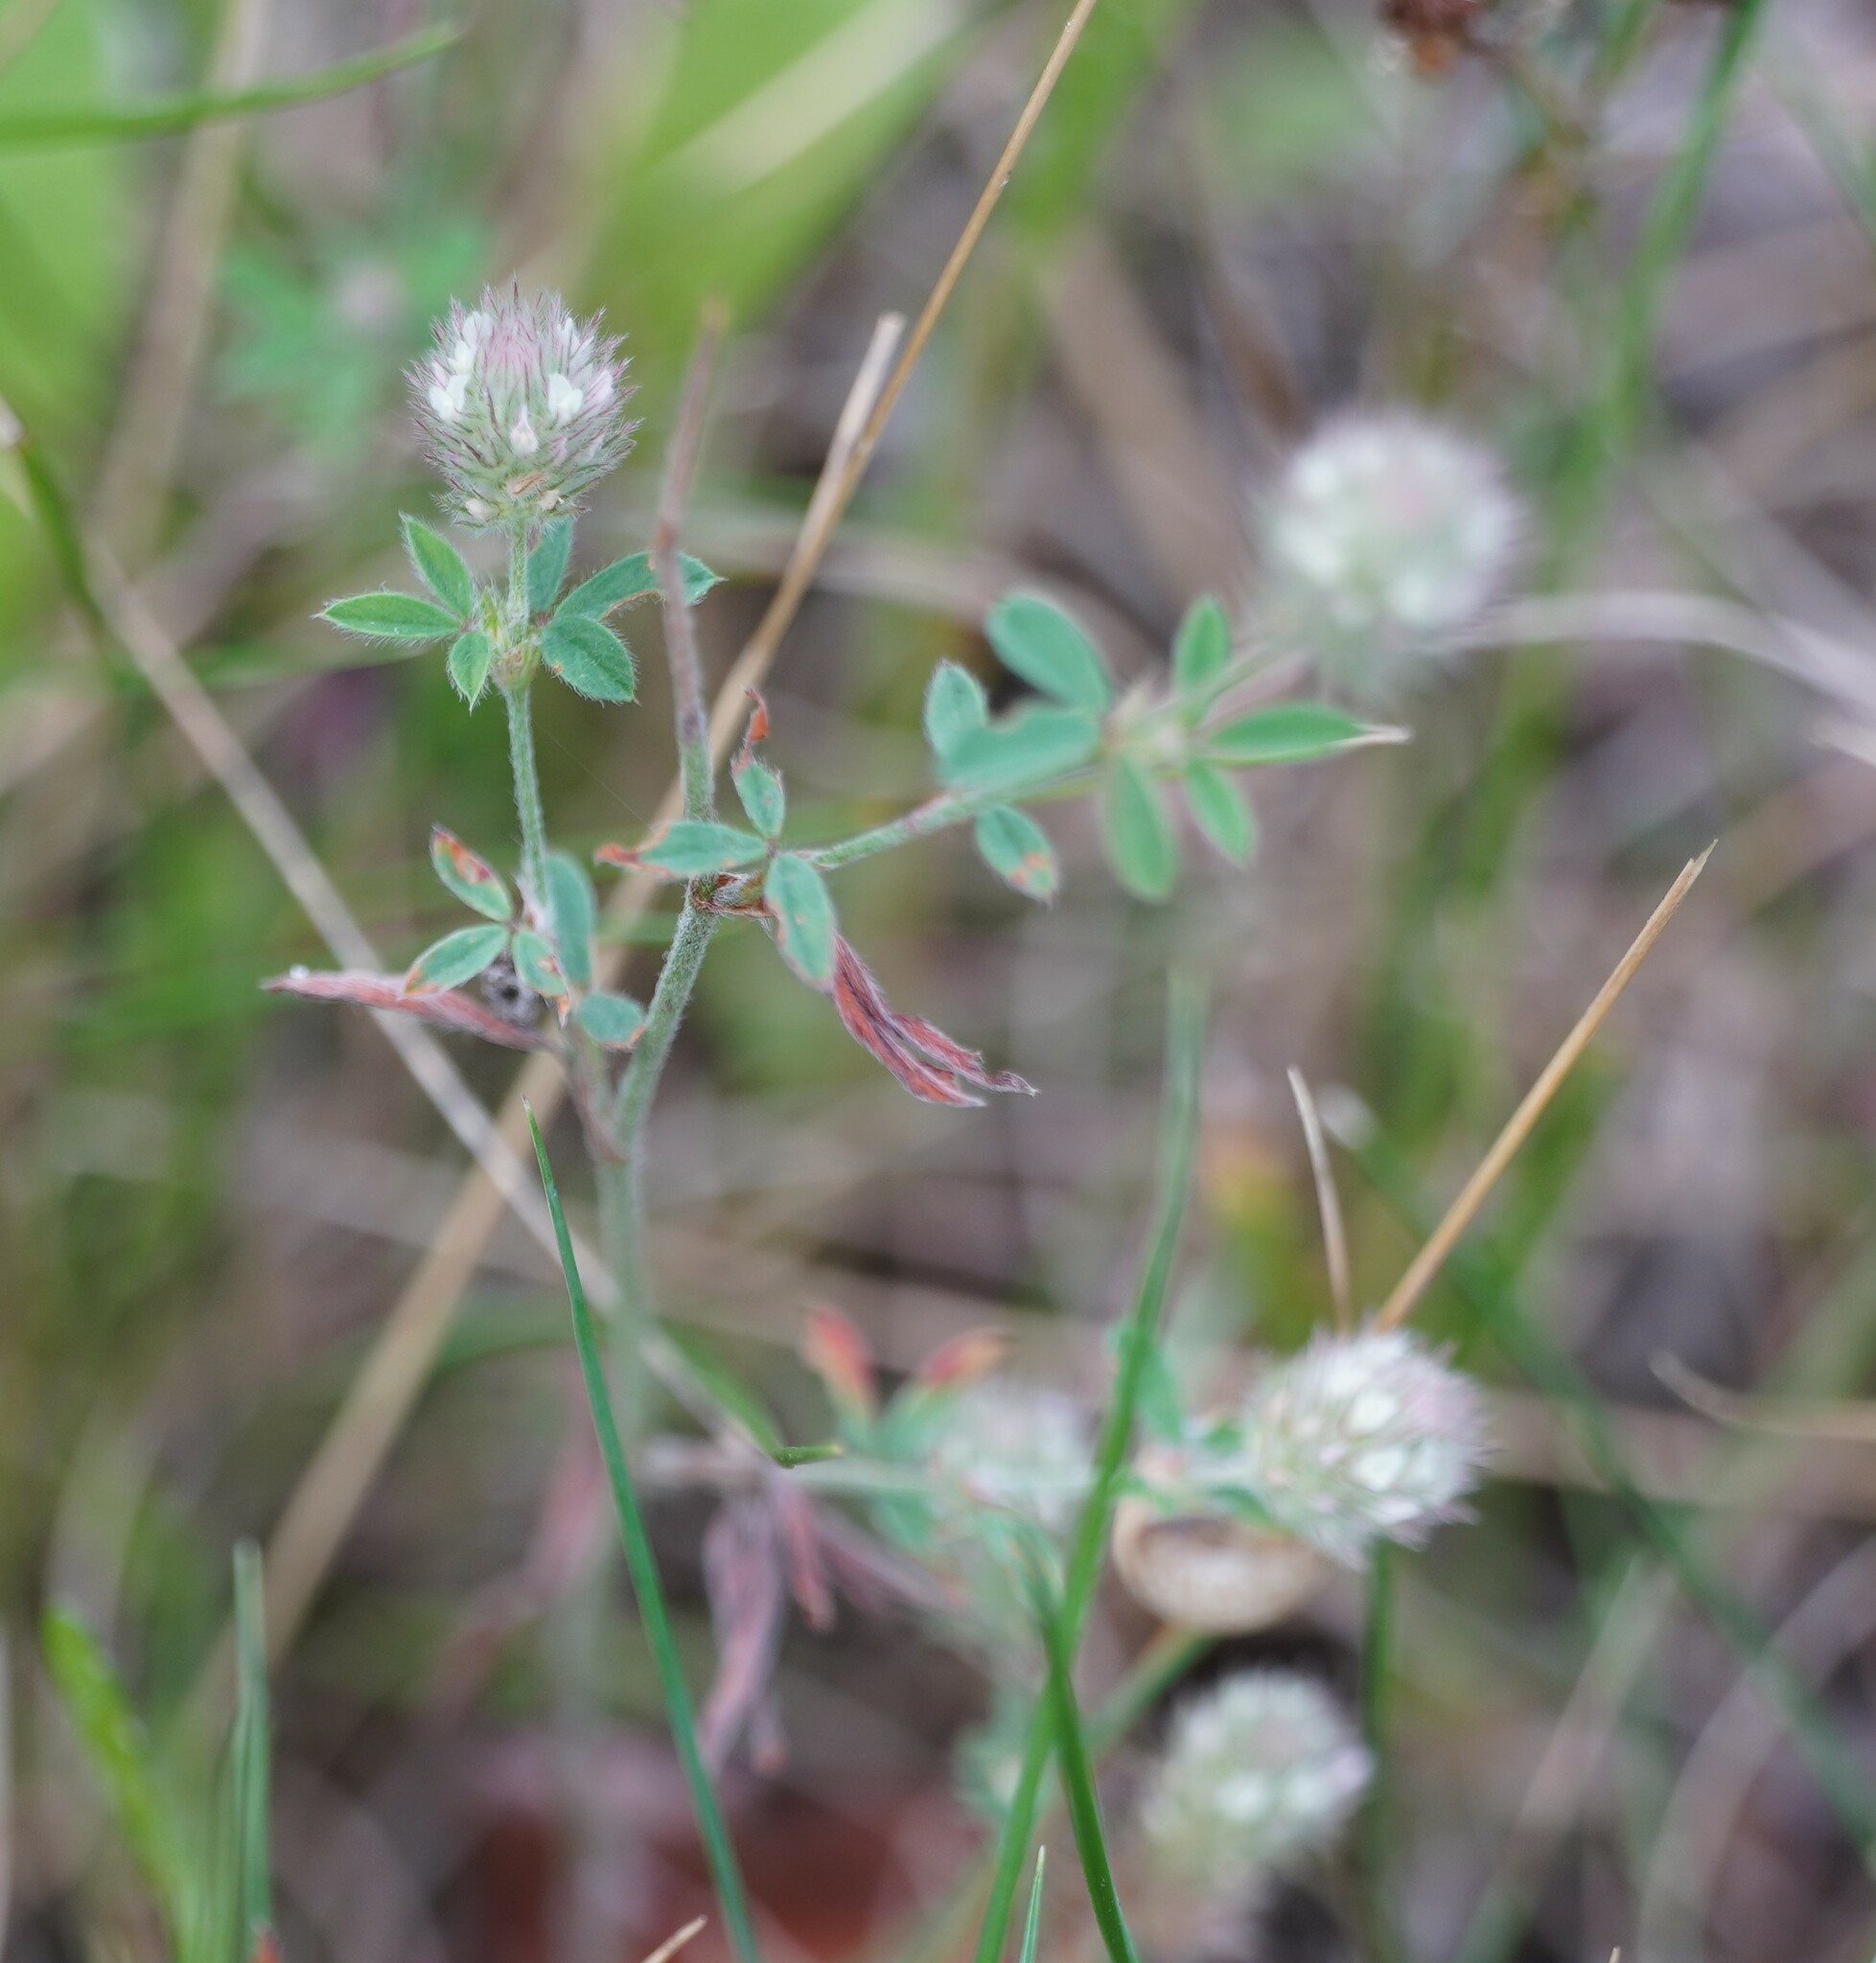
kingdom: Plantae
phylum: Tracheophyta
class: Magnoliopsida
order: Fabales
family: Fabaceae
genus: Trifolium
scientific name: Trifolium arvense
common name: Hare's-foot clover
